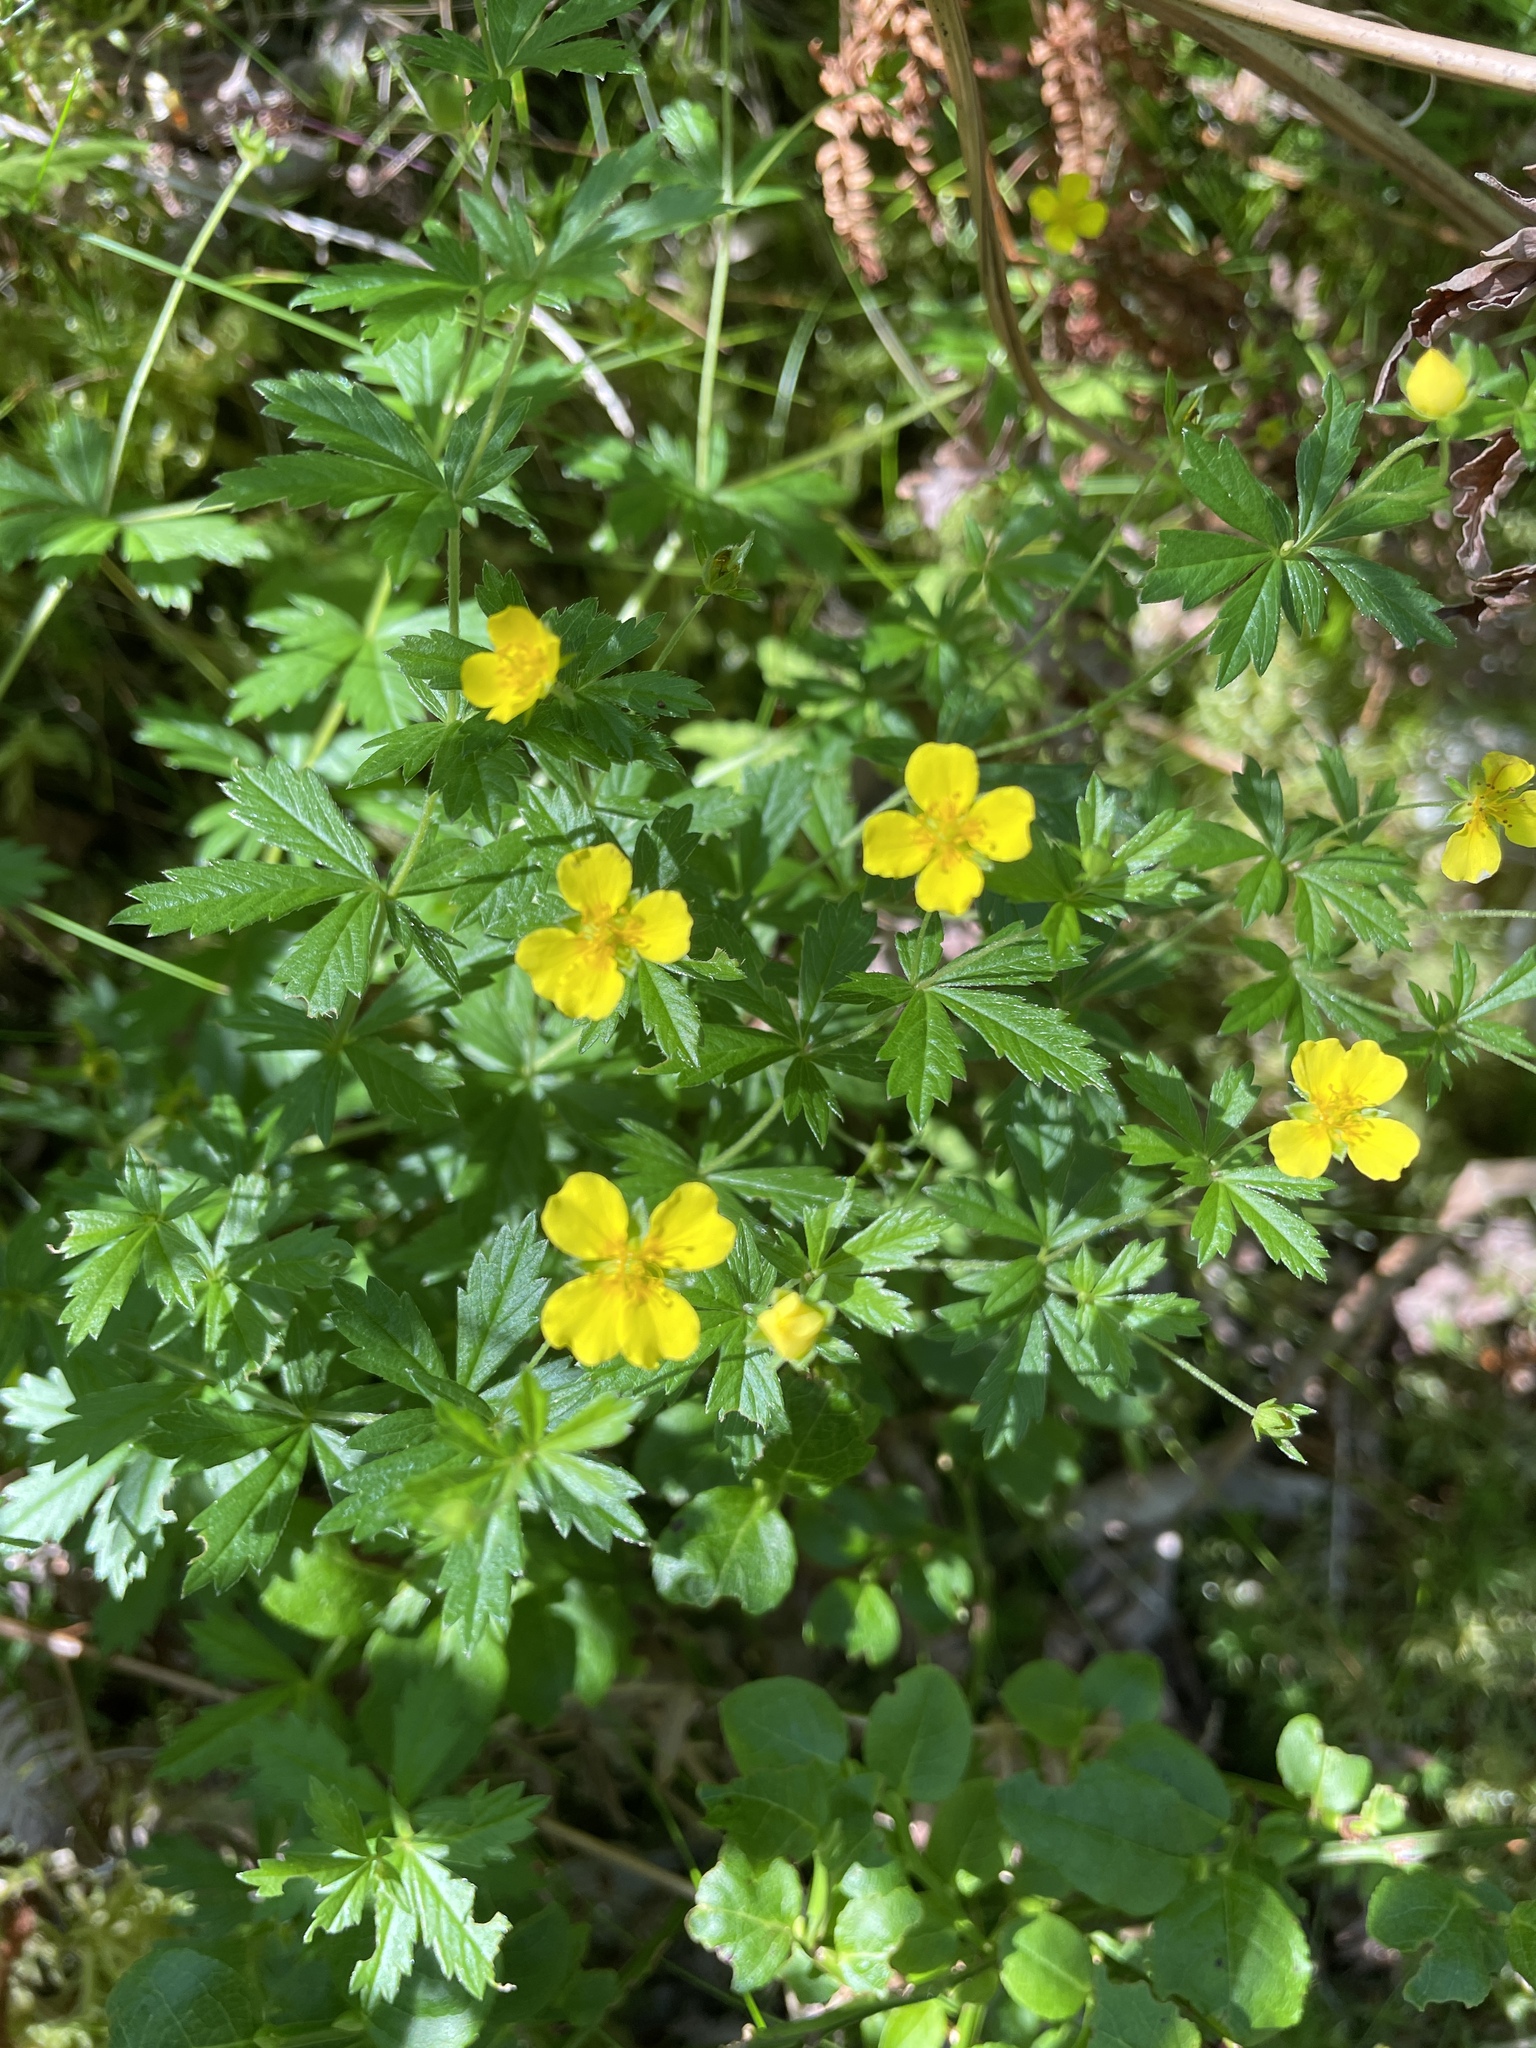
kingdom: Plantae
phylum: Tracheophyta
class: Magnoliopsida
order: Rosales
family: Rosaceae
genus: Potentilla
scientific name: Potentilla erecta
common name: Tormentil
